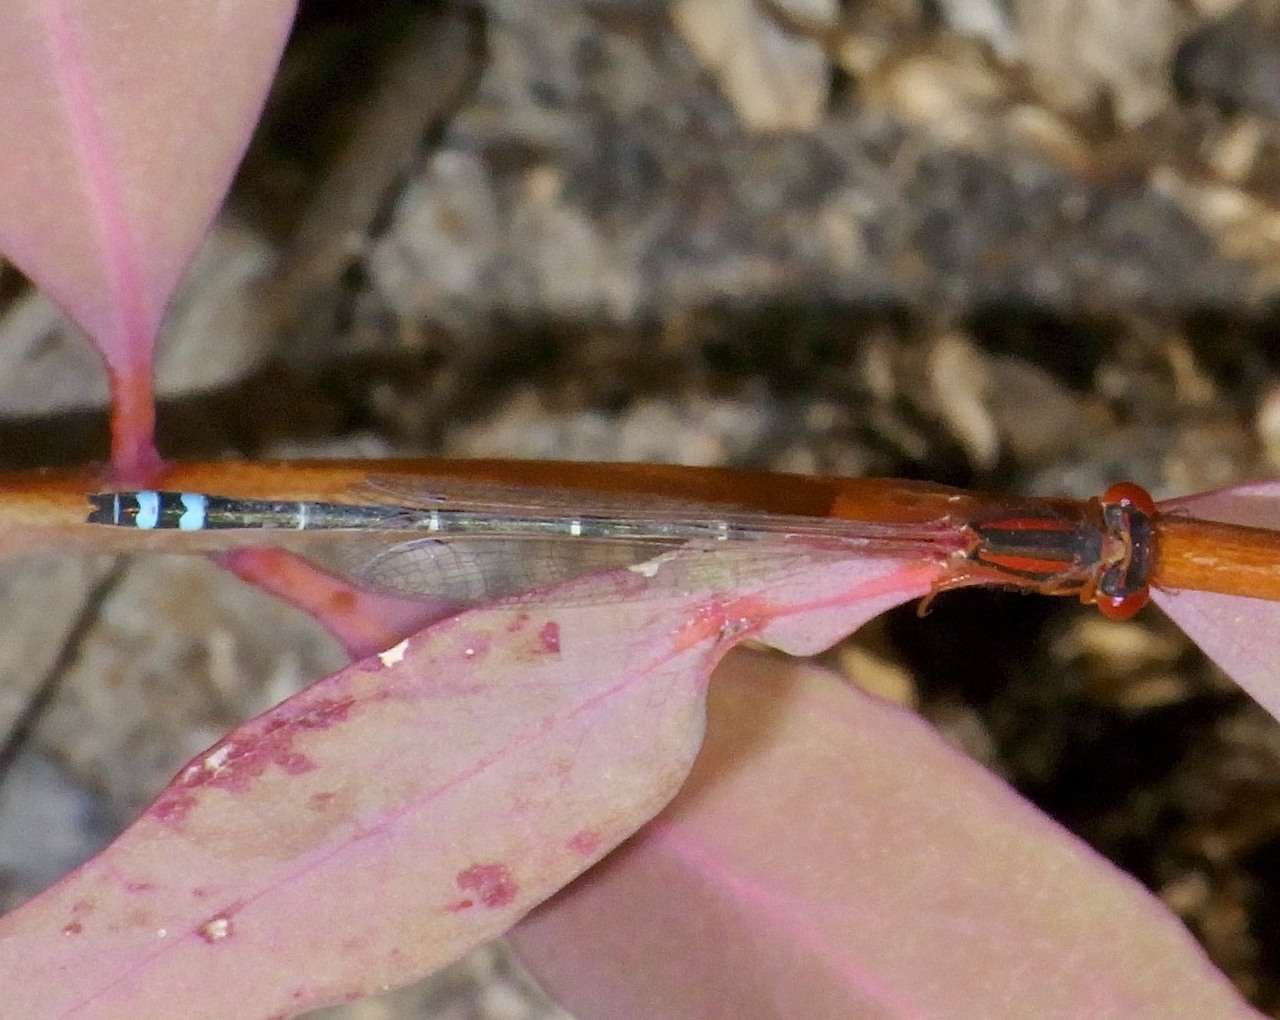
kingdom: Animalia
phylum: Arthropoda
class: Insecta
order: Odonata
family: Coenagrionidae
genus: Xanthagrion
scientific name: Xanthagrion erythroneurum
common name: Red and blue damsel
